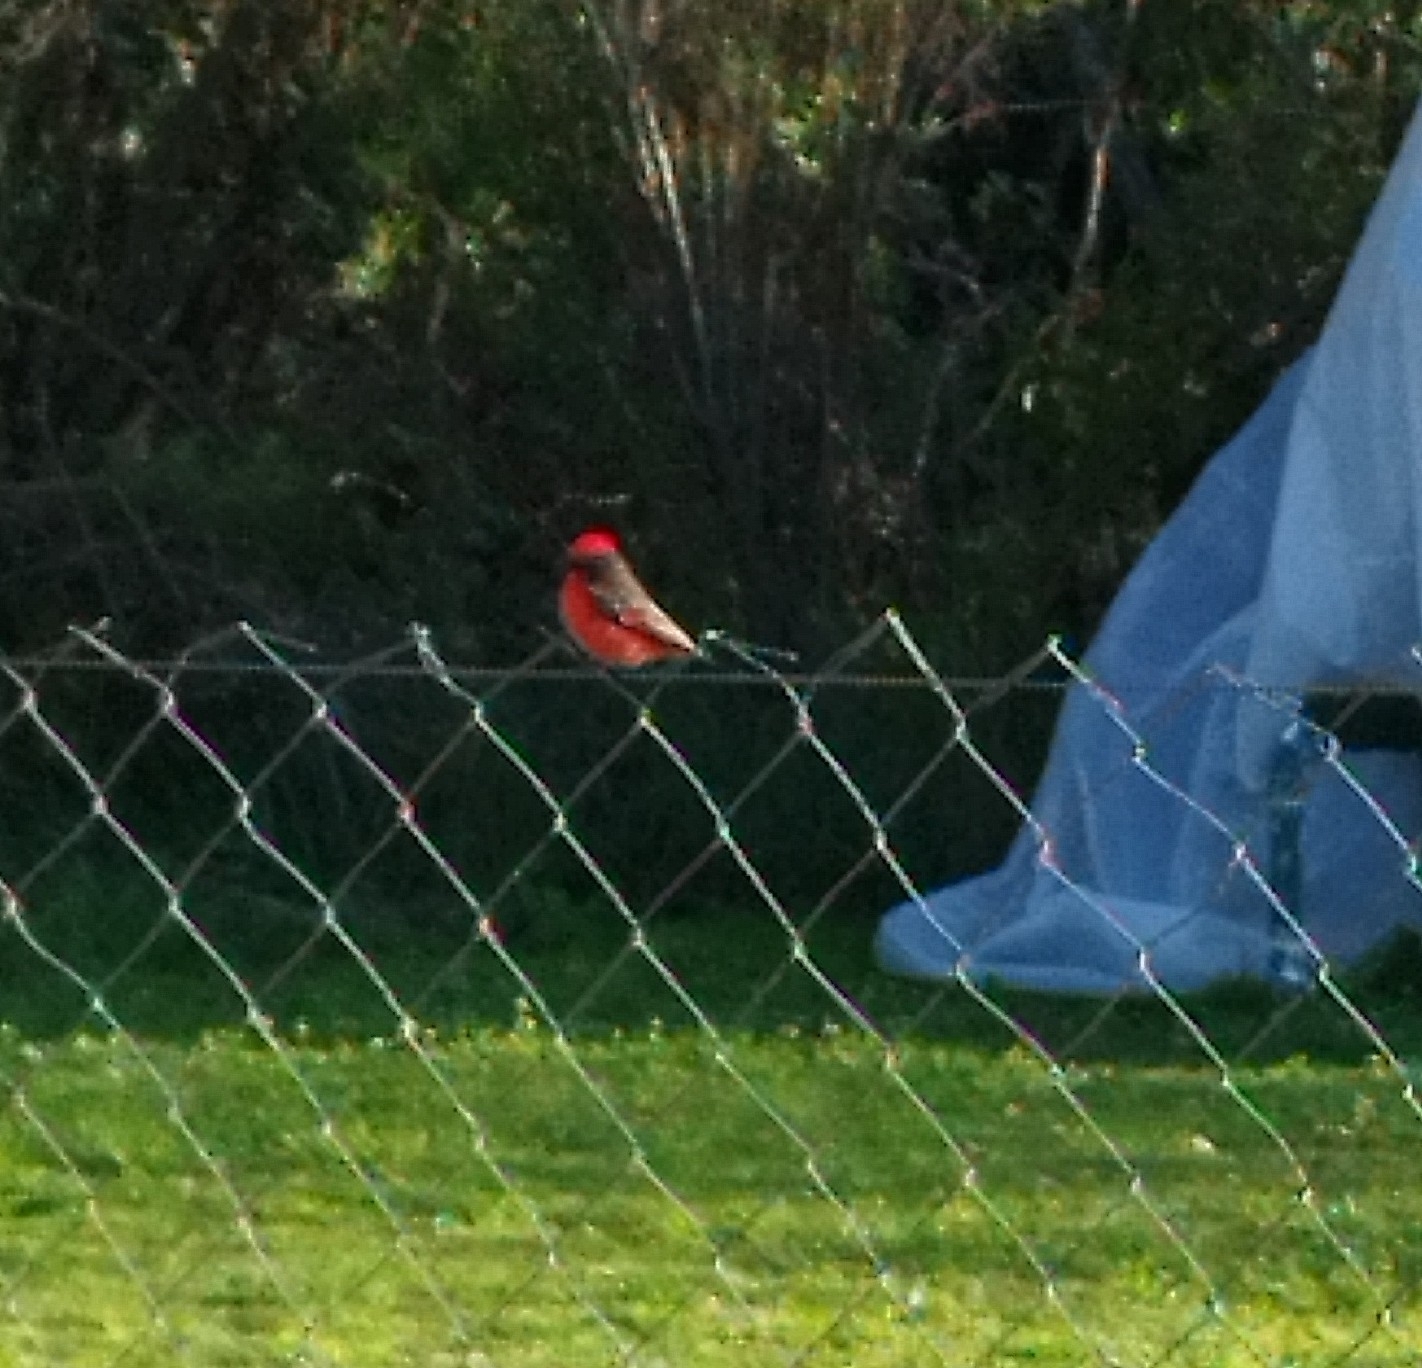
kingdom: Animalia
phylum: Chordata
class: Aves
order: Passeriformes
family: Tyrannidae
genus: Pyrocephalus
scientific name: Pyrocephalus rubinus
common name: Vermilion flycatcher
